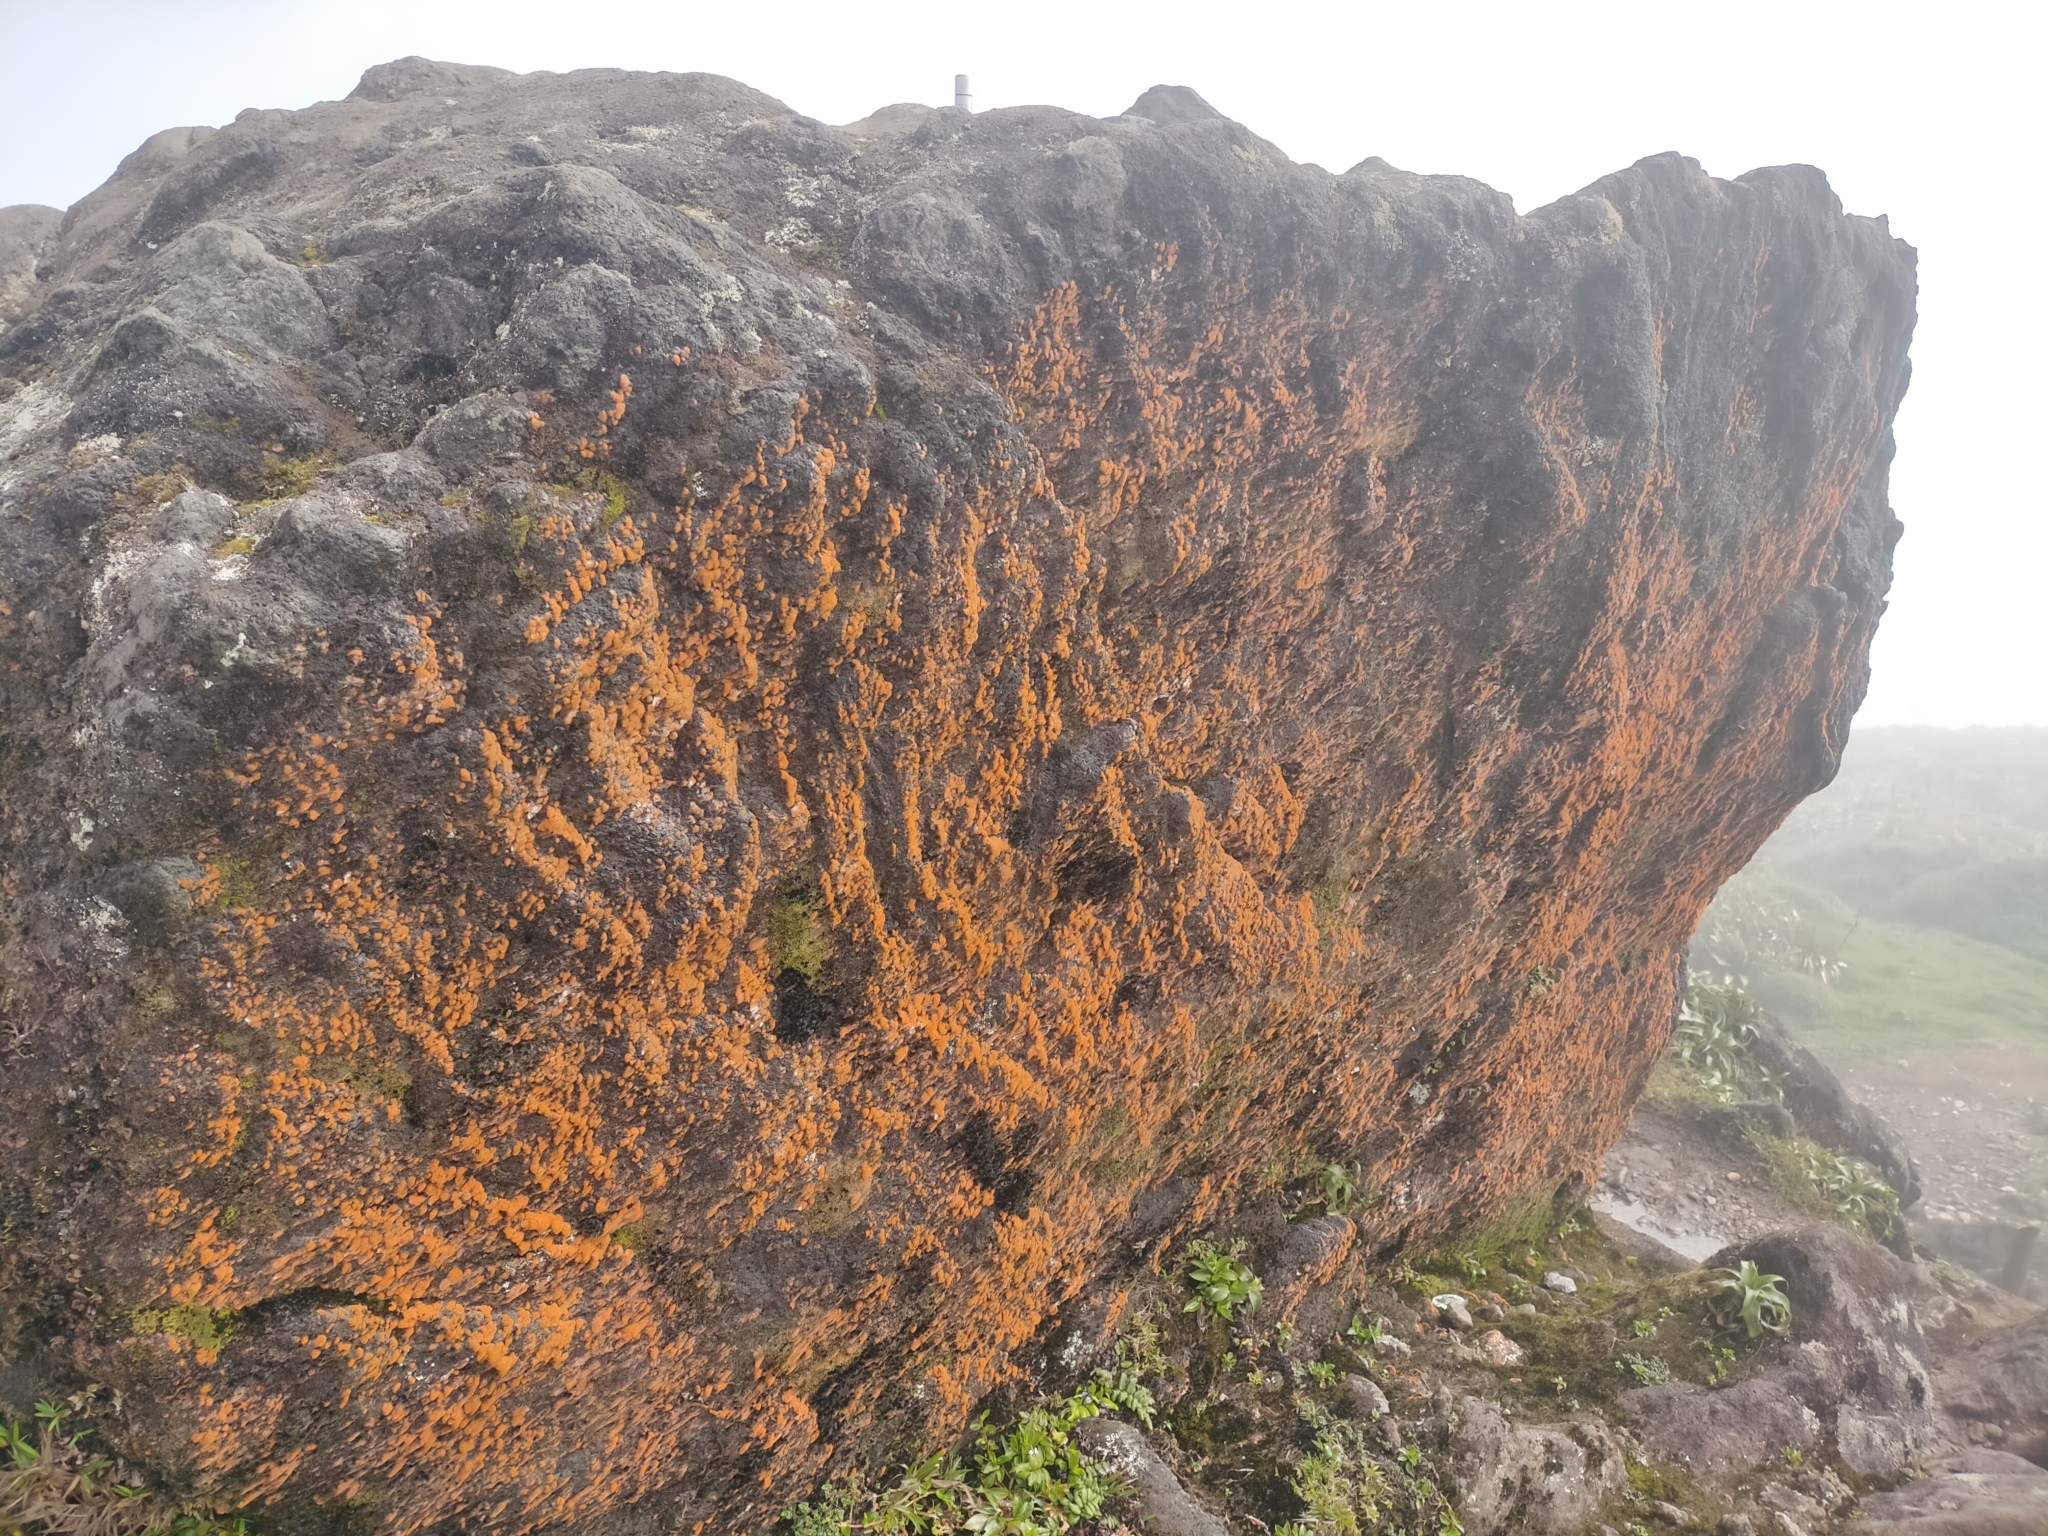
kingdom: Plantae
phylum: Chlorophyta
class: Ulvophyceae
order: Trentepohliales
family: Trentepohliaceae
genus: Trentepohlia
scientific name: Trentepohlia aurea
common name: Orange rock hair
